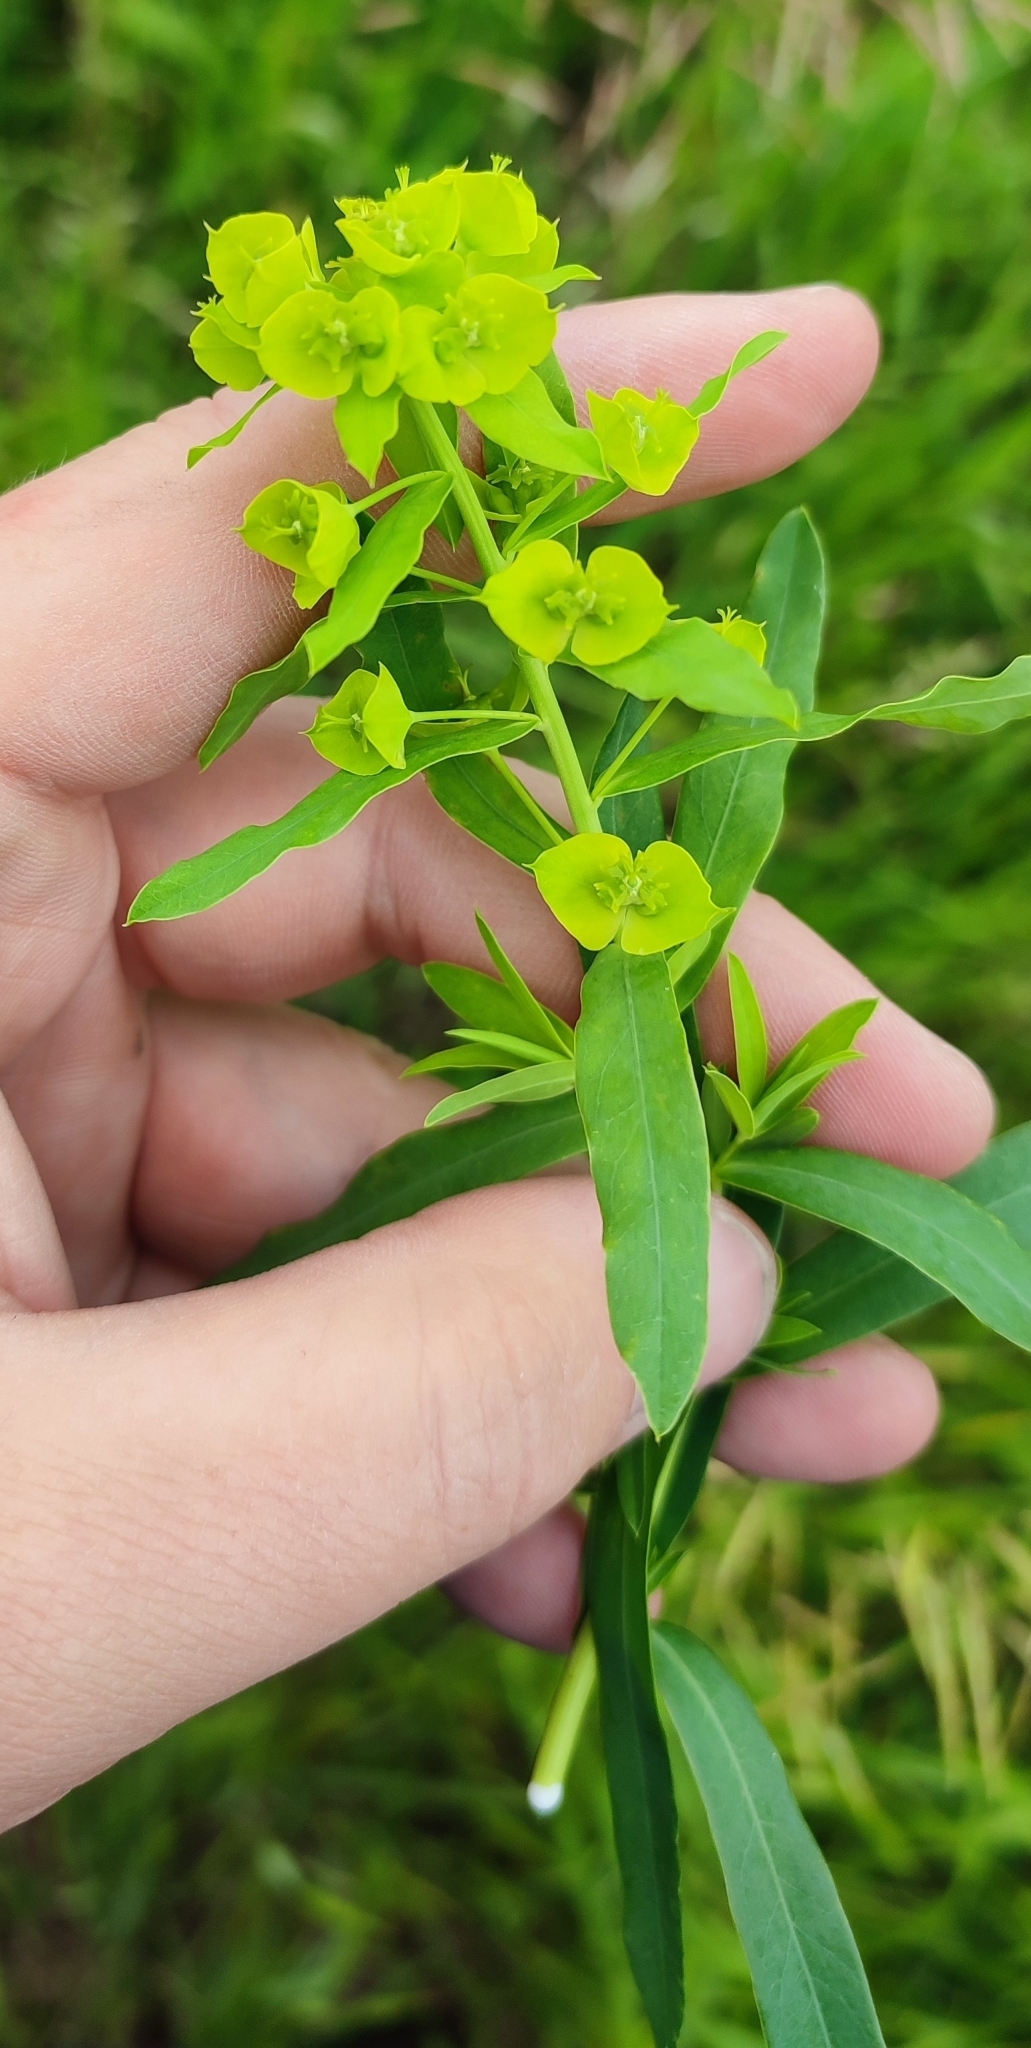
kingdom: Plantae
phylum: Tracheophyta
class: Magnoliopsida
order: Malpighiales
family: Euphorbiaceae
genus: Euphorbia
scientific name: Euphorbia virgata
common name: Leafy spurge
